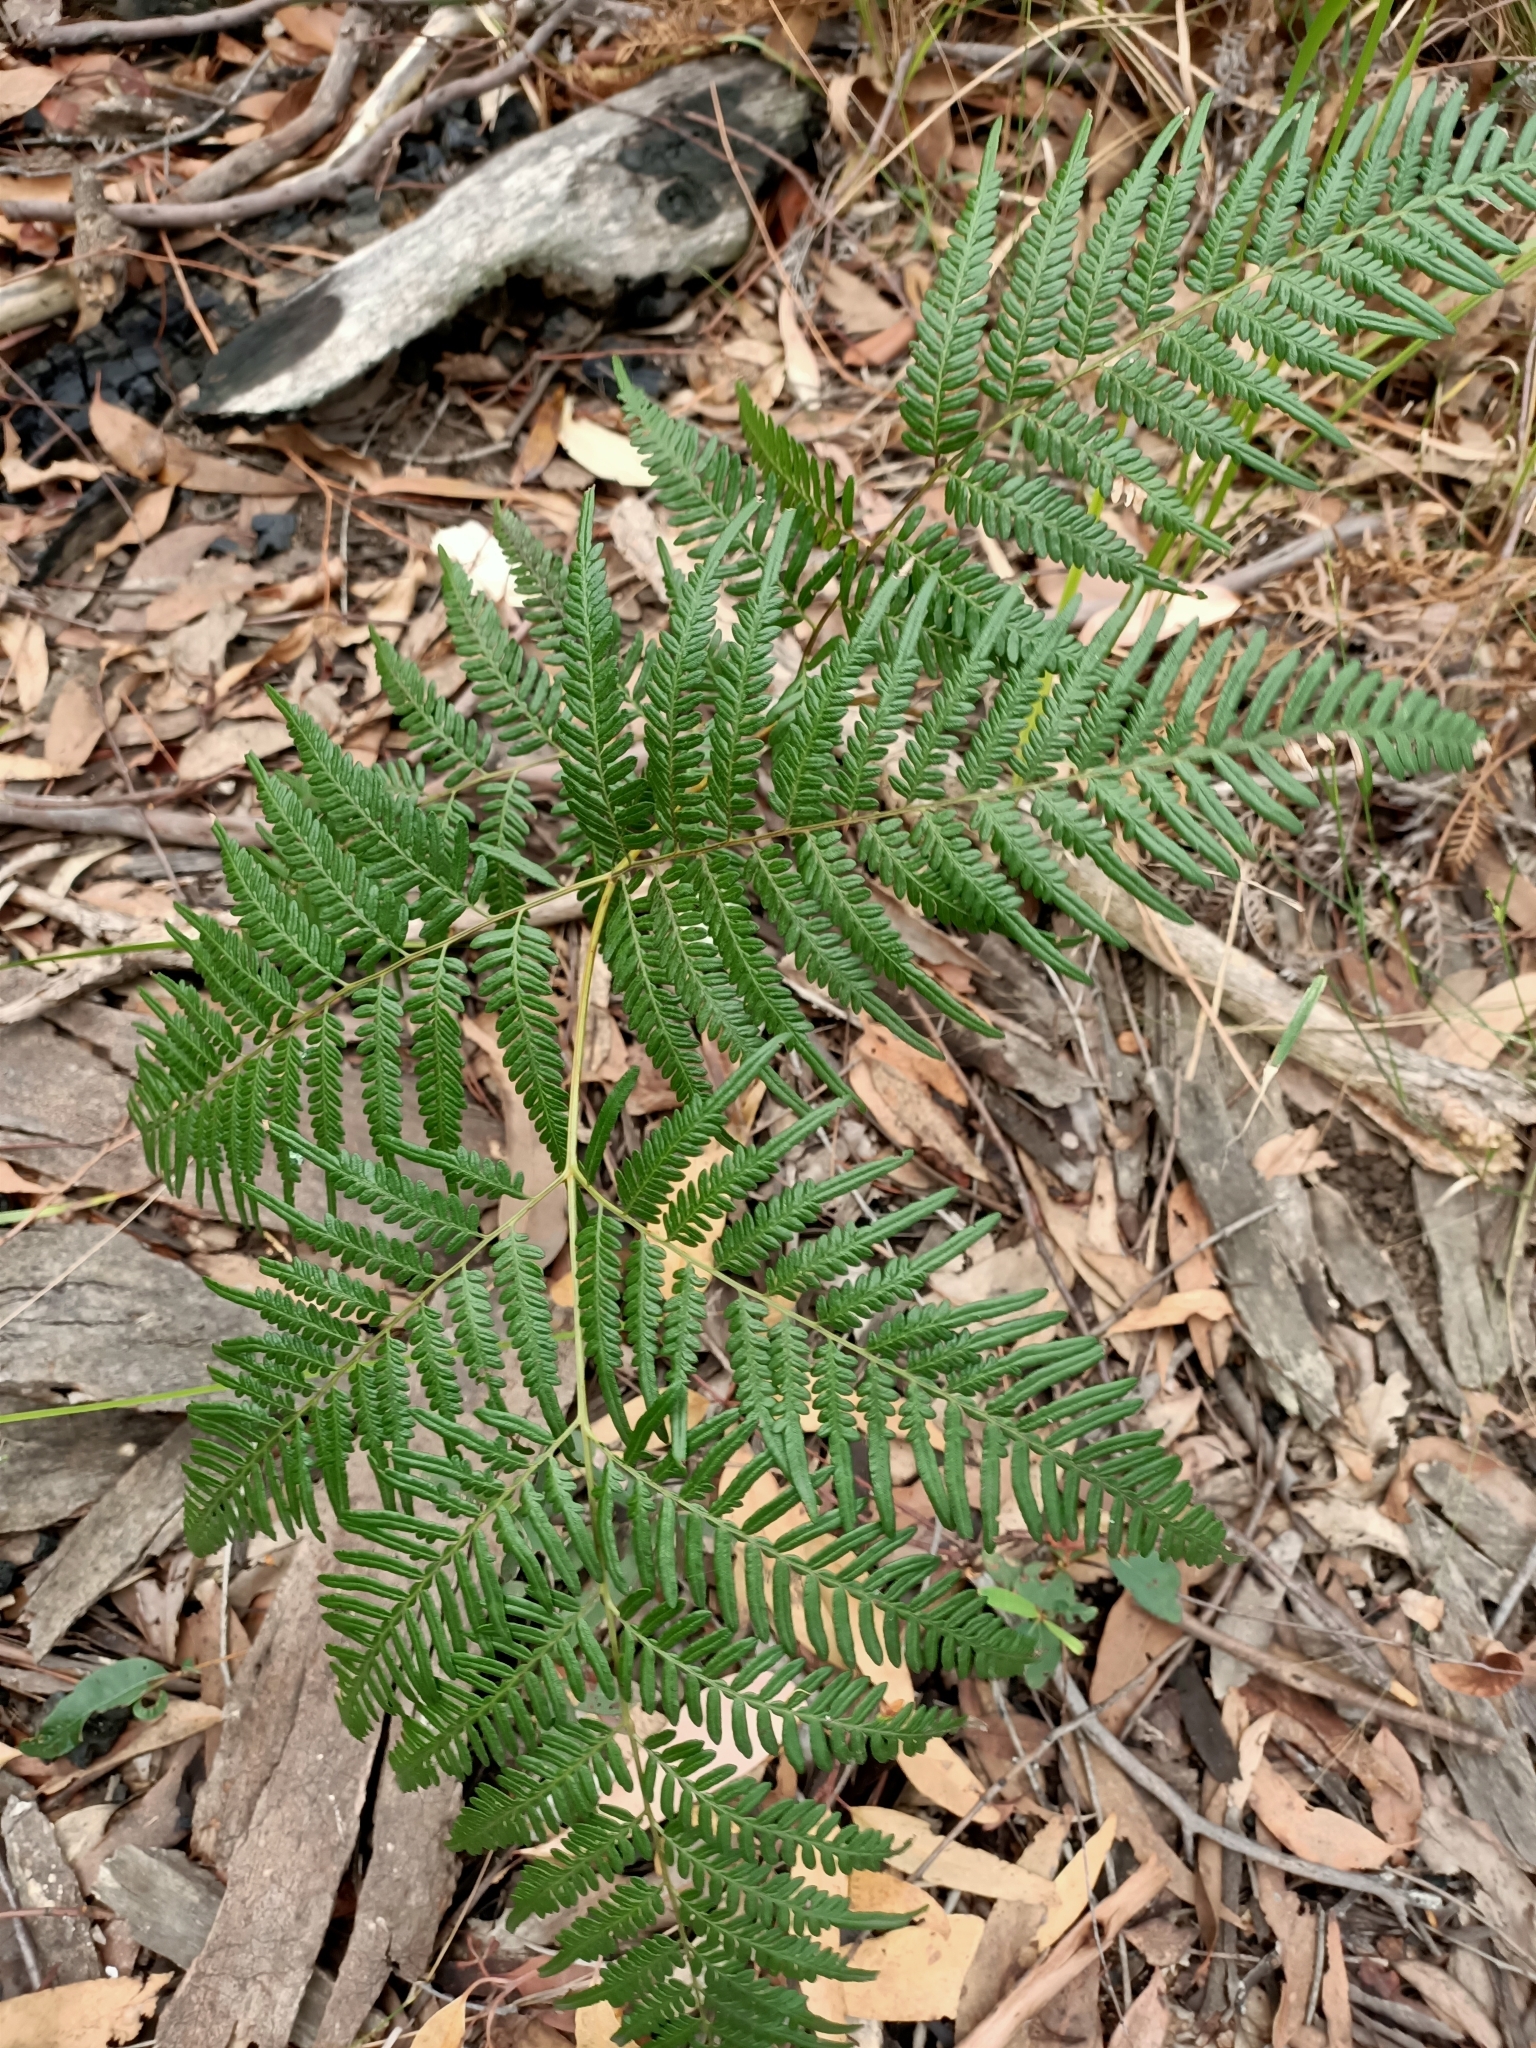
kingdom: Plantae
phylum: Tracheophyta
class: Polypodiopsida
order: Polypodiales
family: Dennstaedtiaceae
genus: Pteridium
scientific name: Pteridium esculentum
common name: Bracken fern
